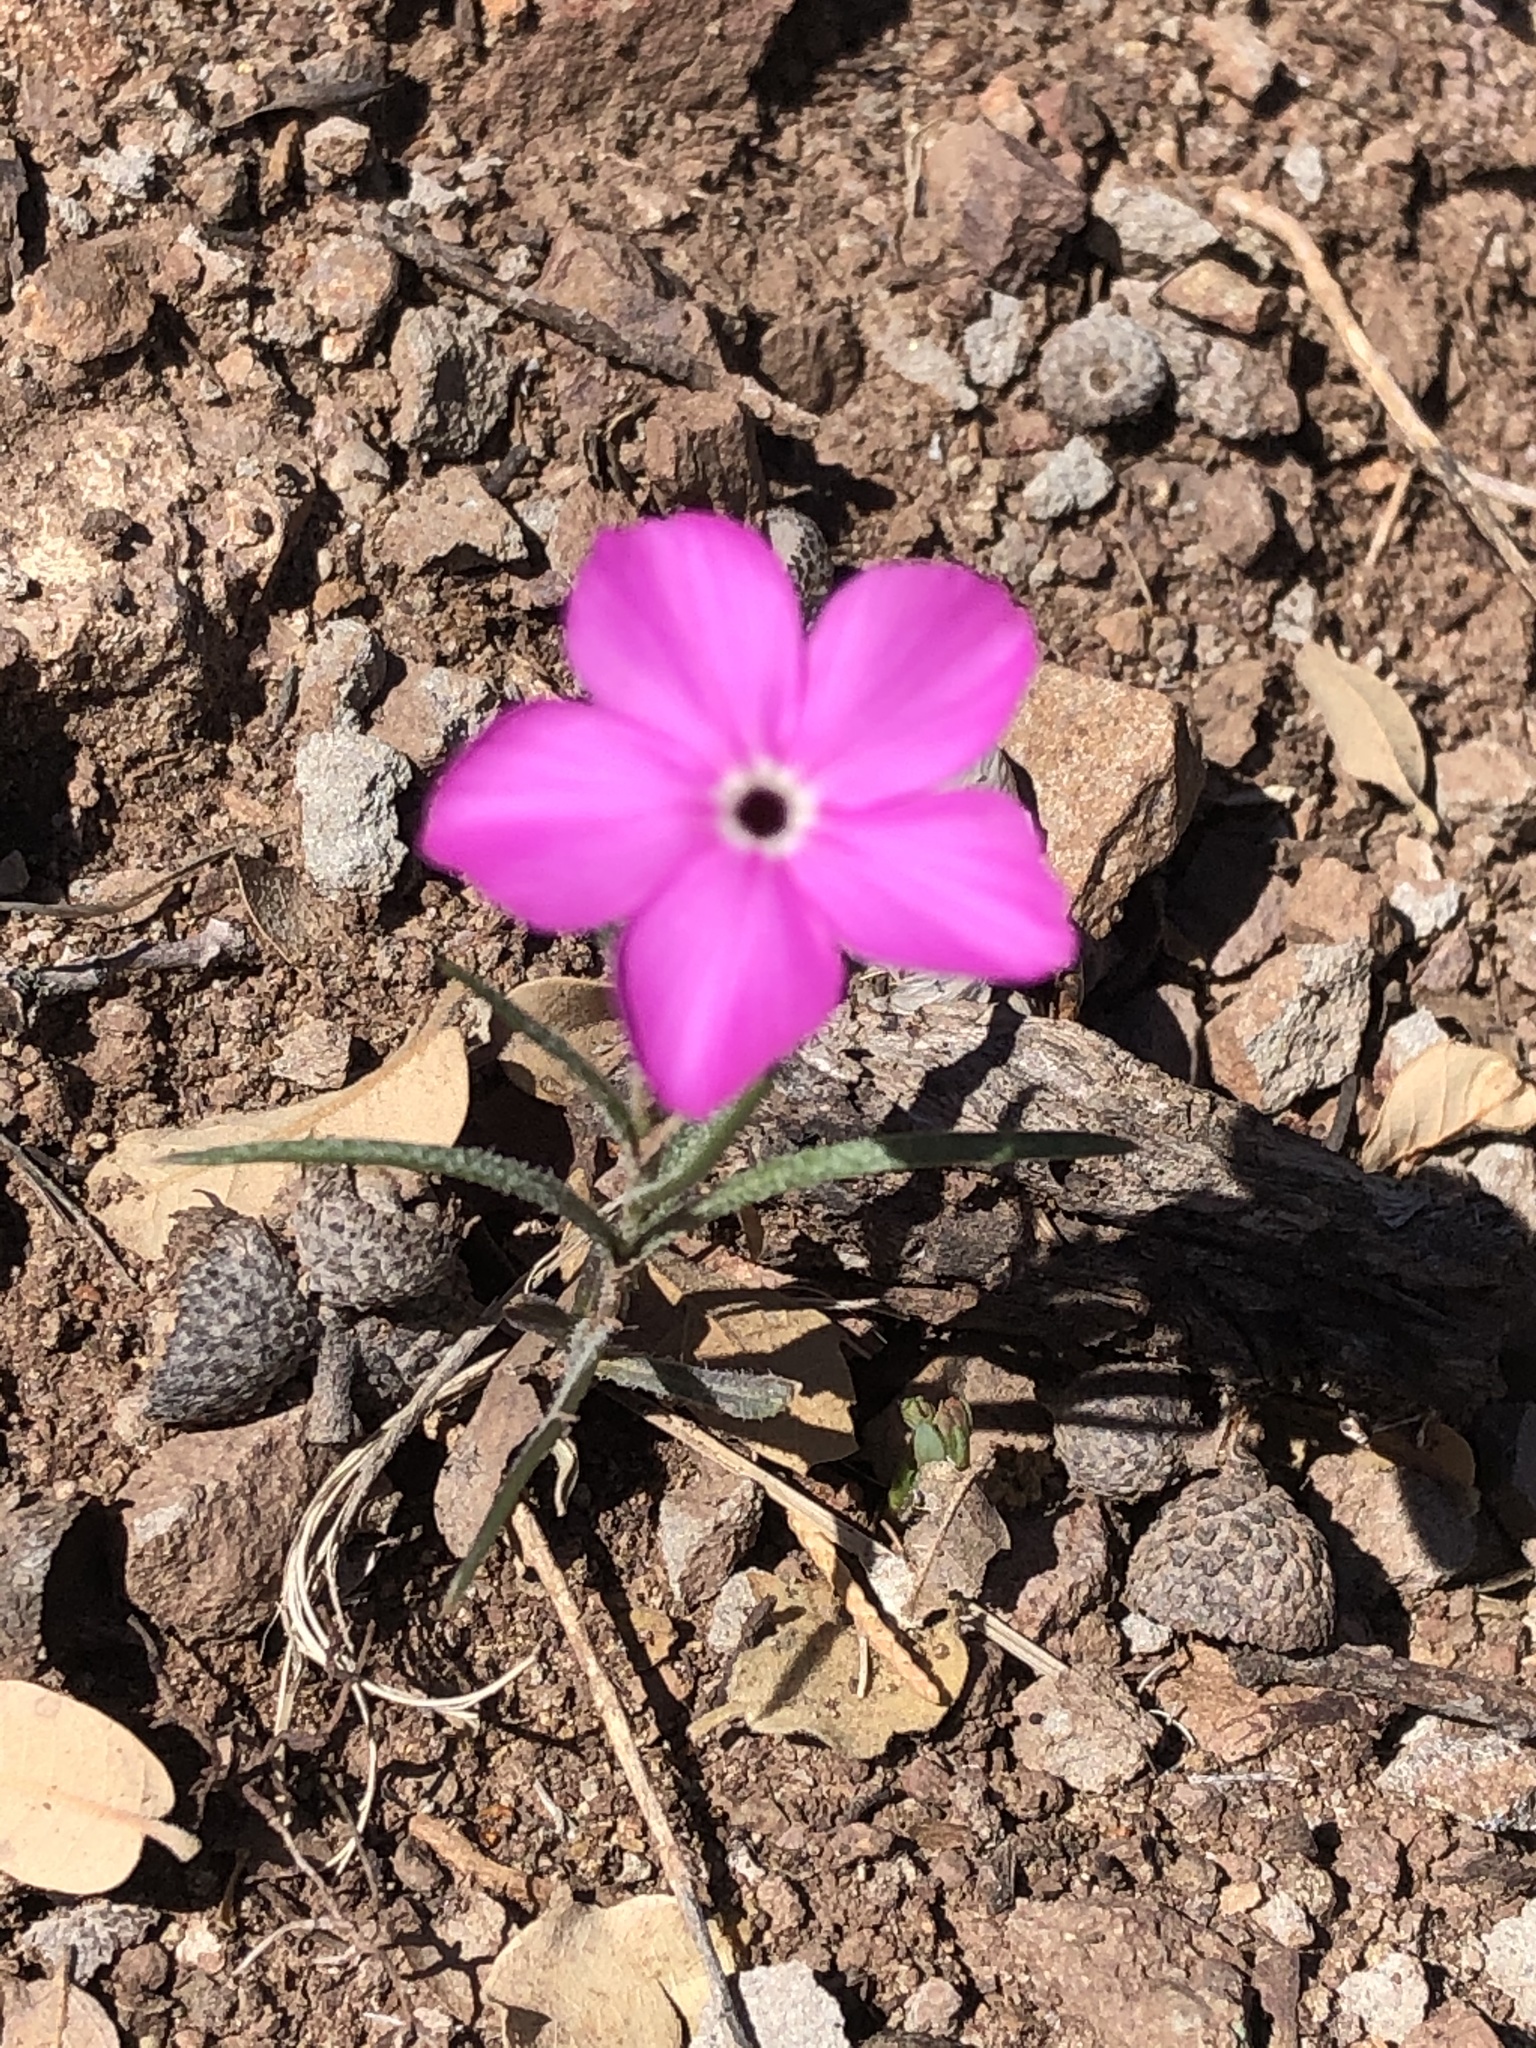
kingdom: Plantae
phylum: Tracheophyta
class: Magnoliopsida
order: Ericales
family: Polemoniaceae
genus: Phlox
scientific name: Phlox nana
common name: Santa fe phlox
